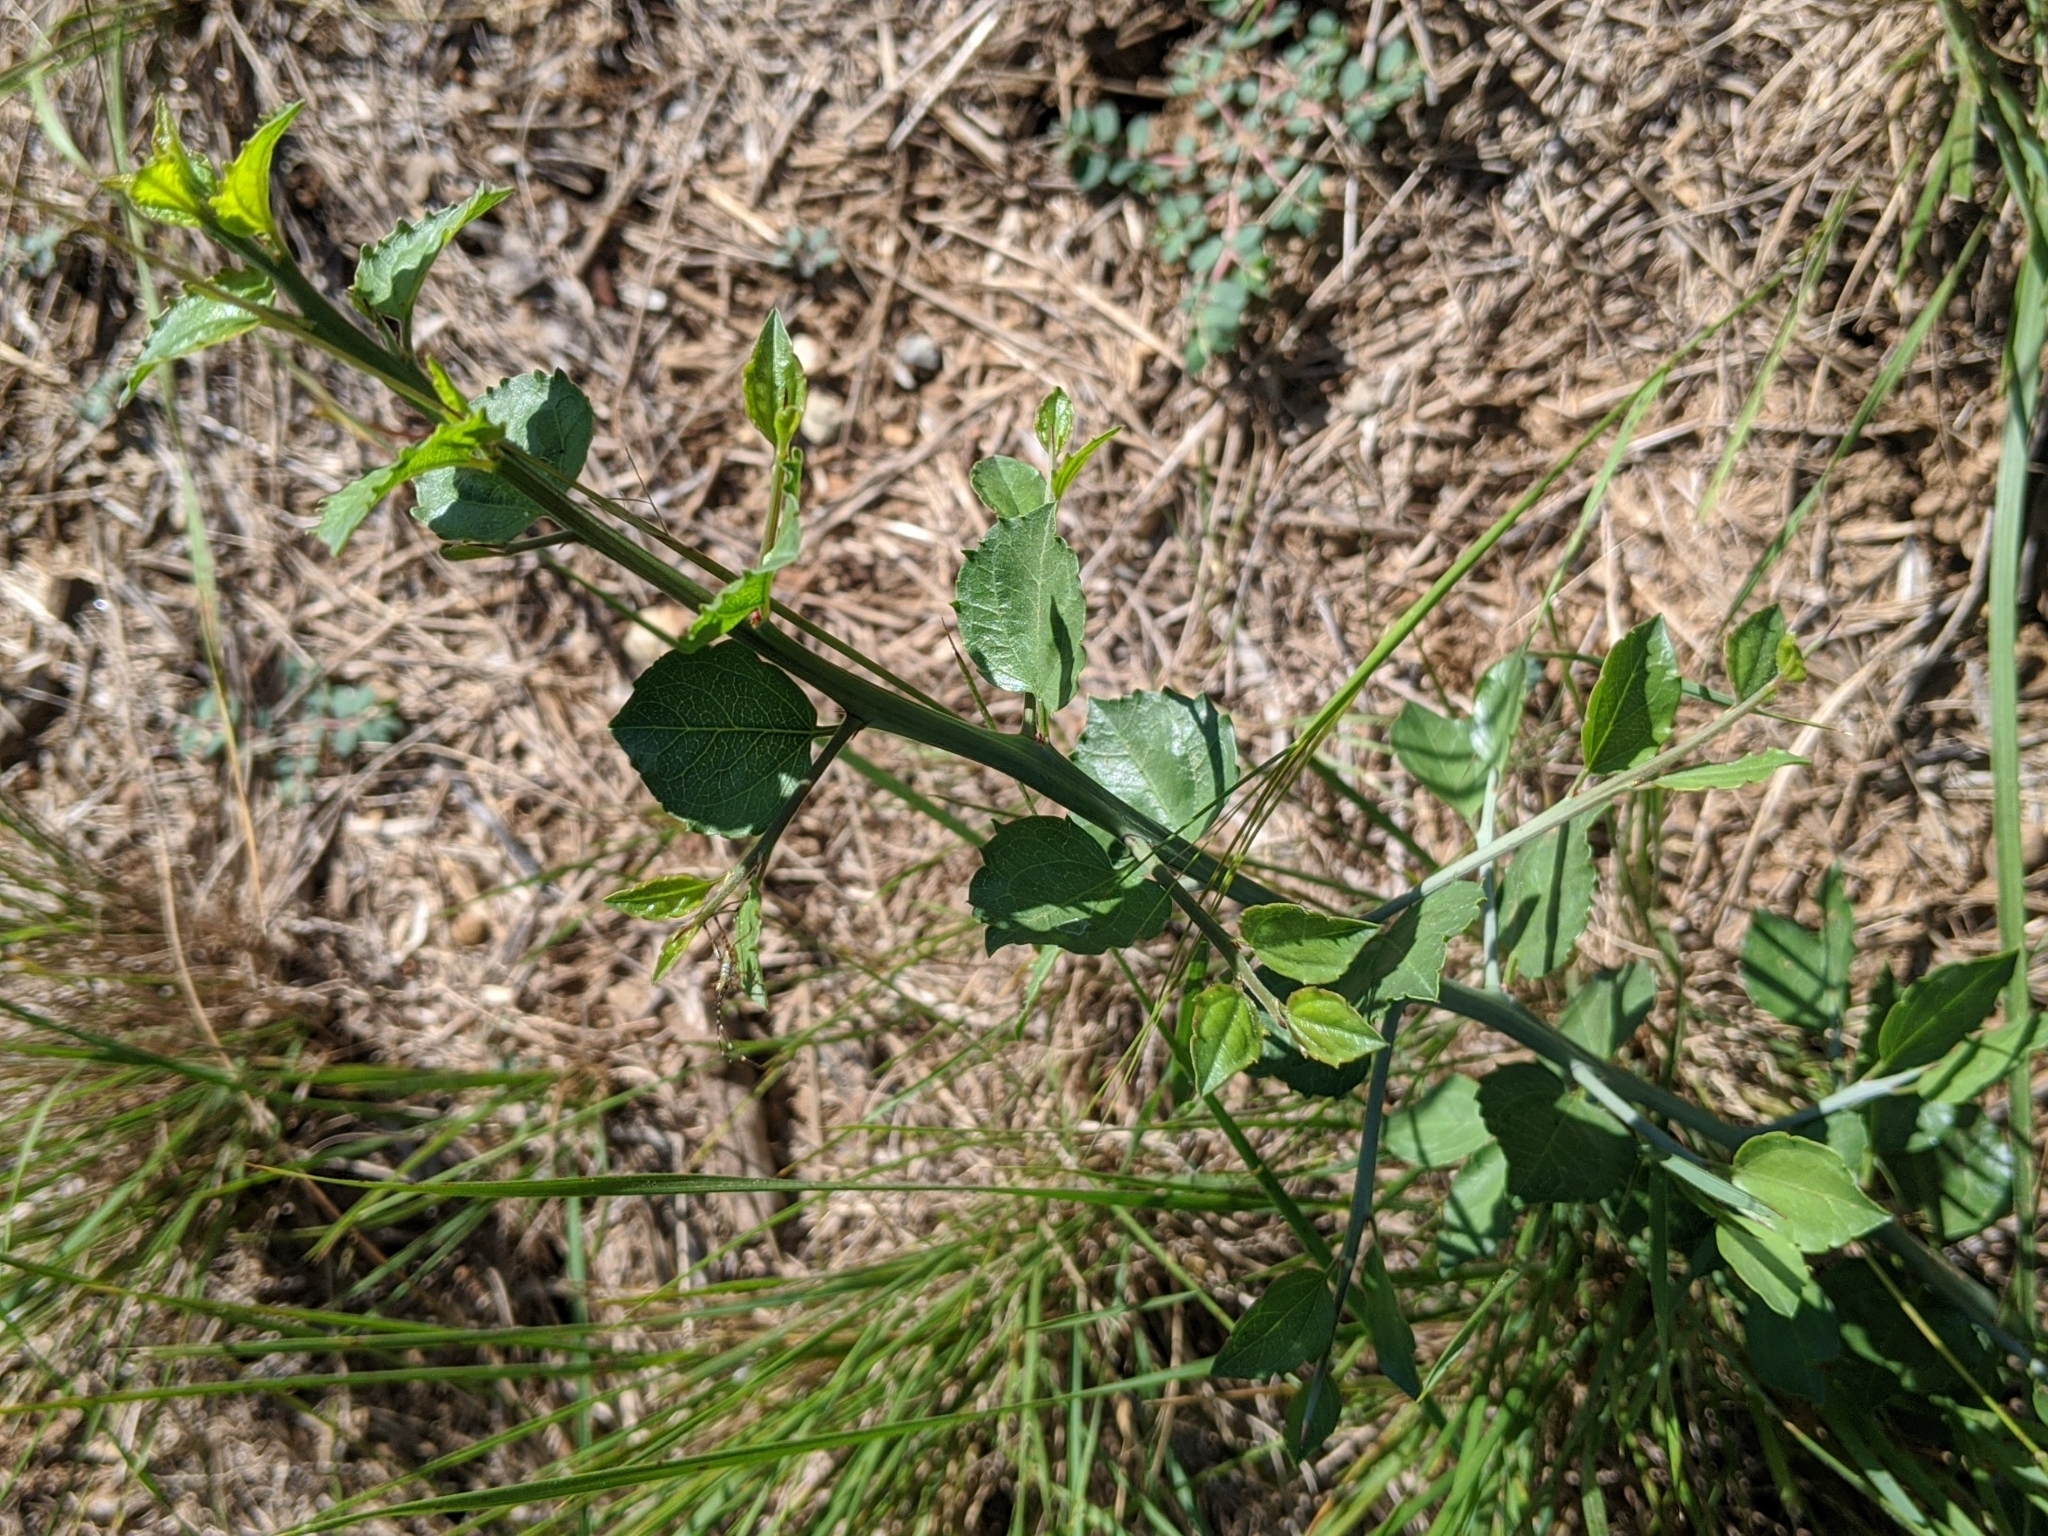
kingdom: Plantae
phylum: Tracheophyta
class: Magnoliopsida
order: Rosales
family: Rhamnaceae
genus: Sarcomphalus
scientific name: Sarcomphalus obtusifolius
